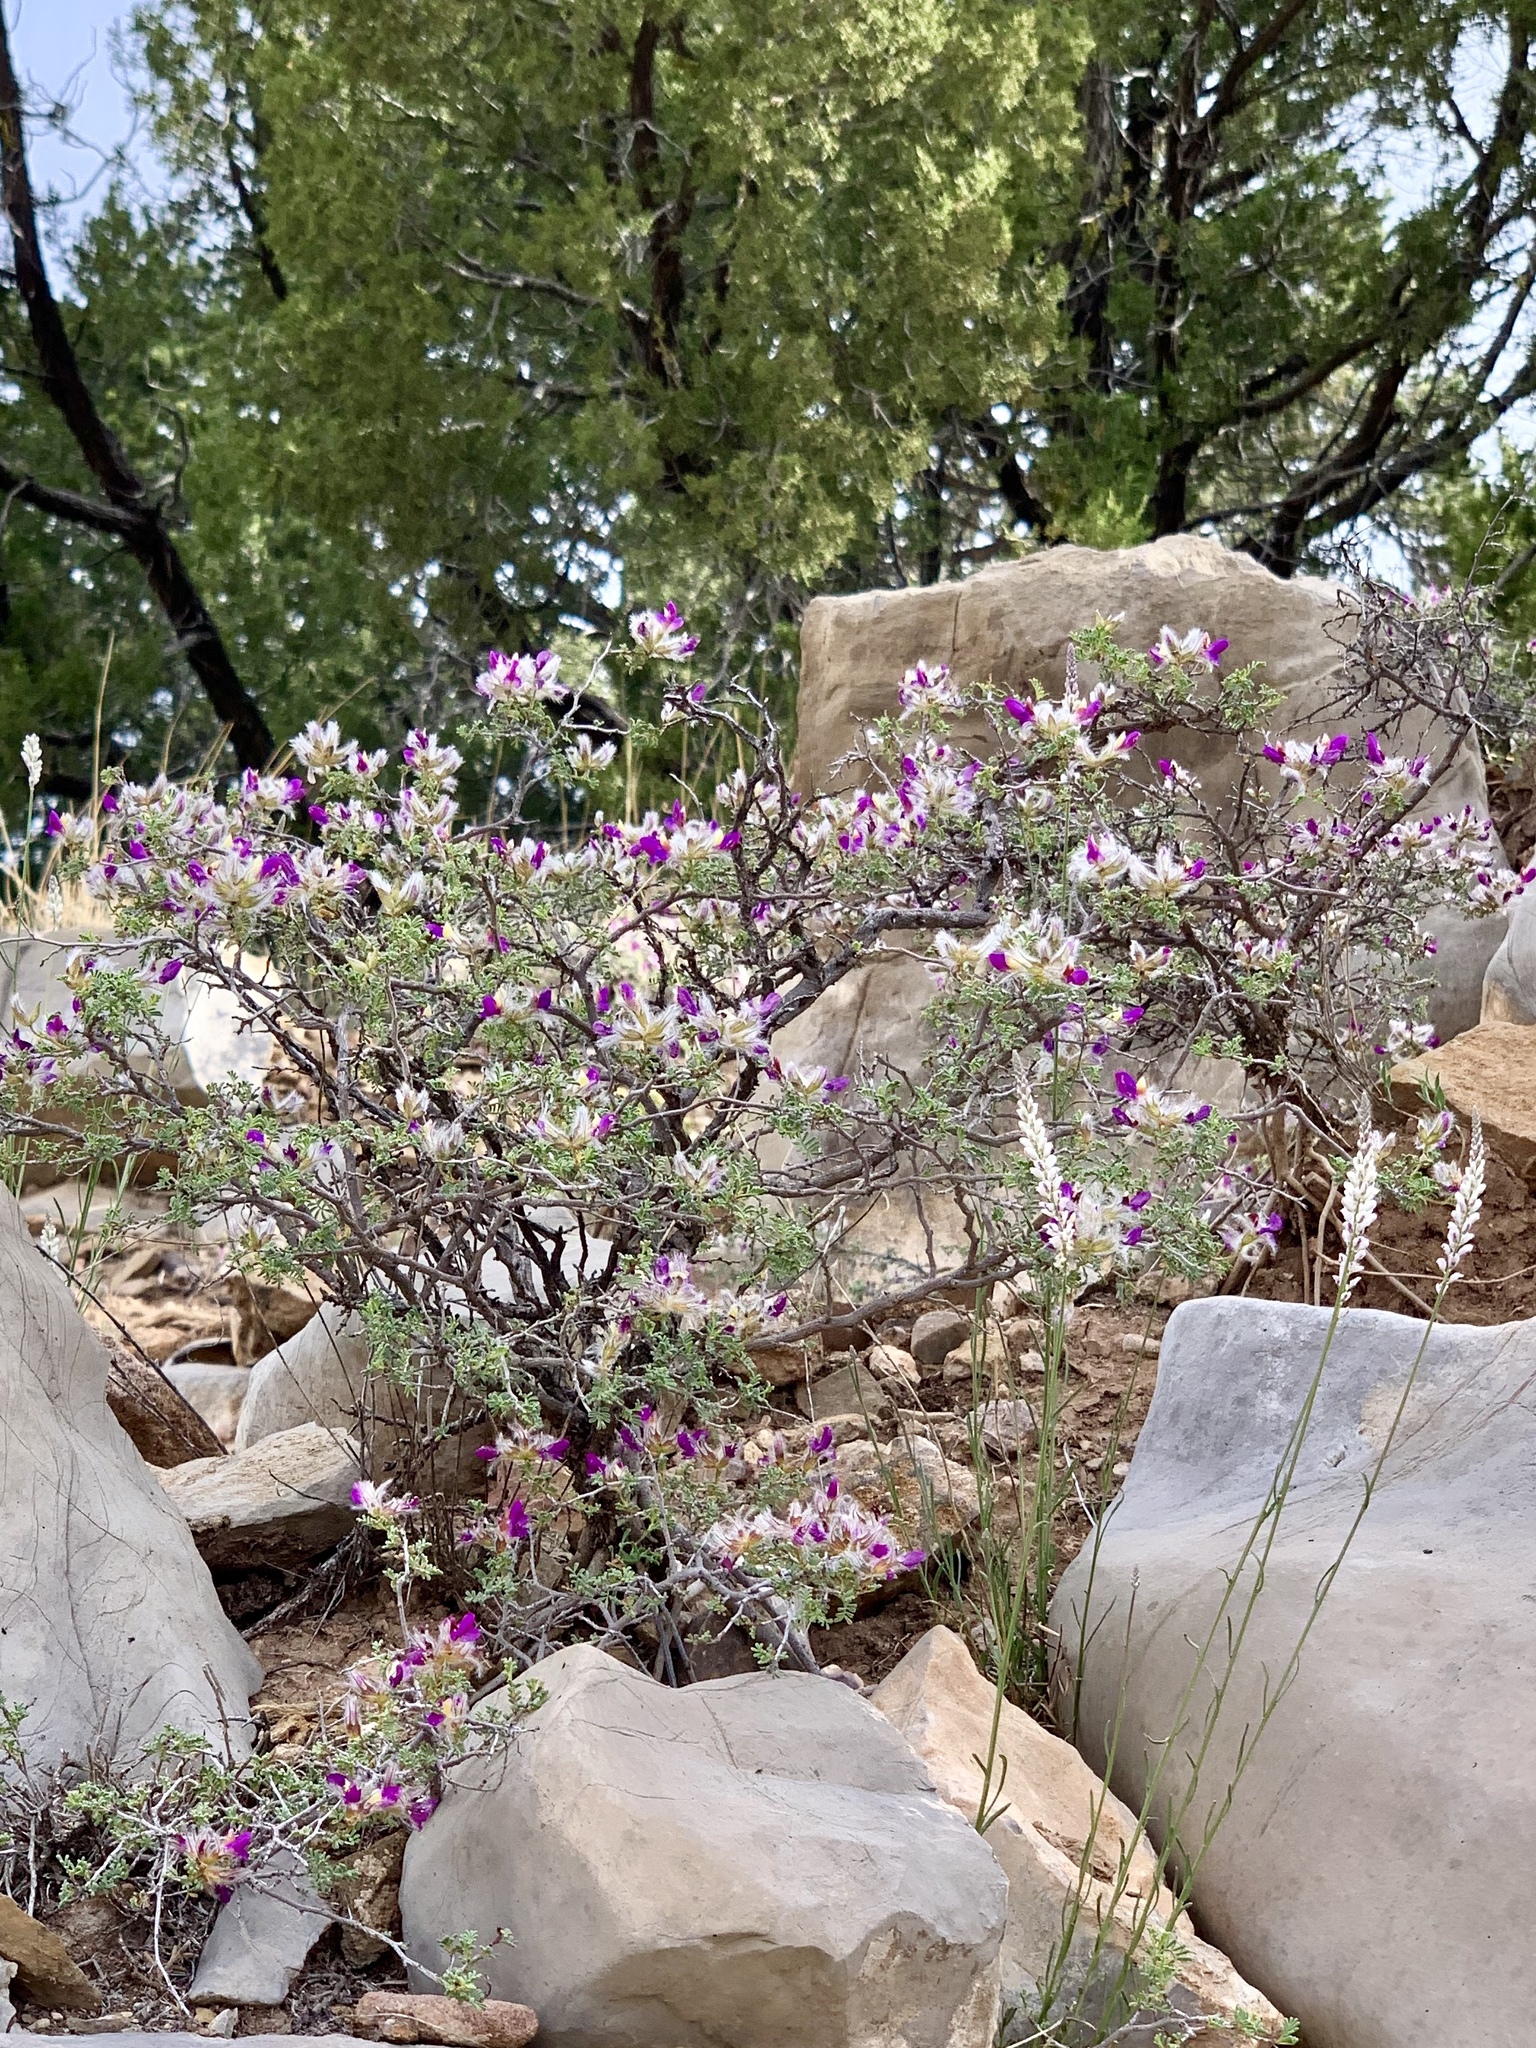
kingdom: Plantae
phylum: Tracheophyta
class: Magnoliopsida
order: Fabales
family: Fabaceae
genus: Dalea
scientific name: Dalea formosa
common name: Feather-plume dalea
